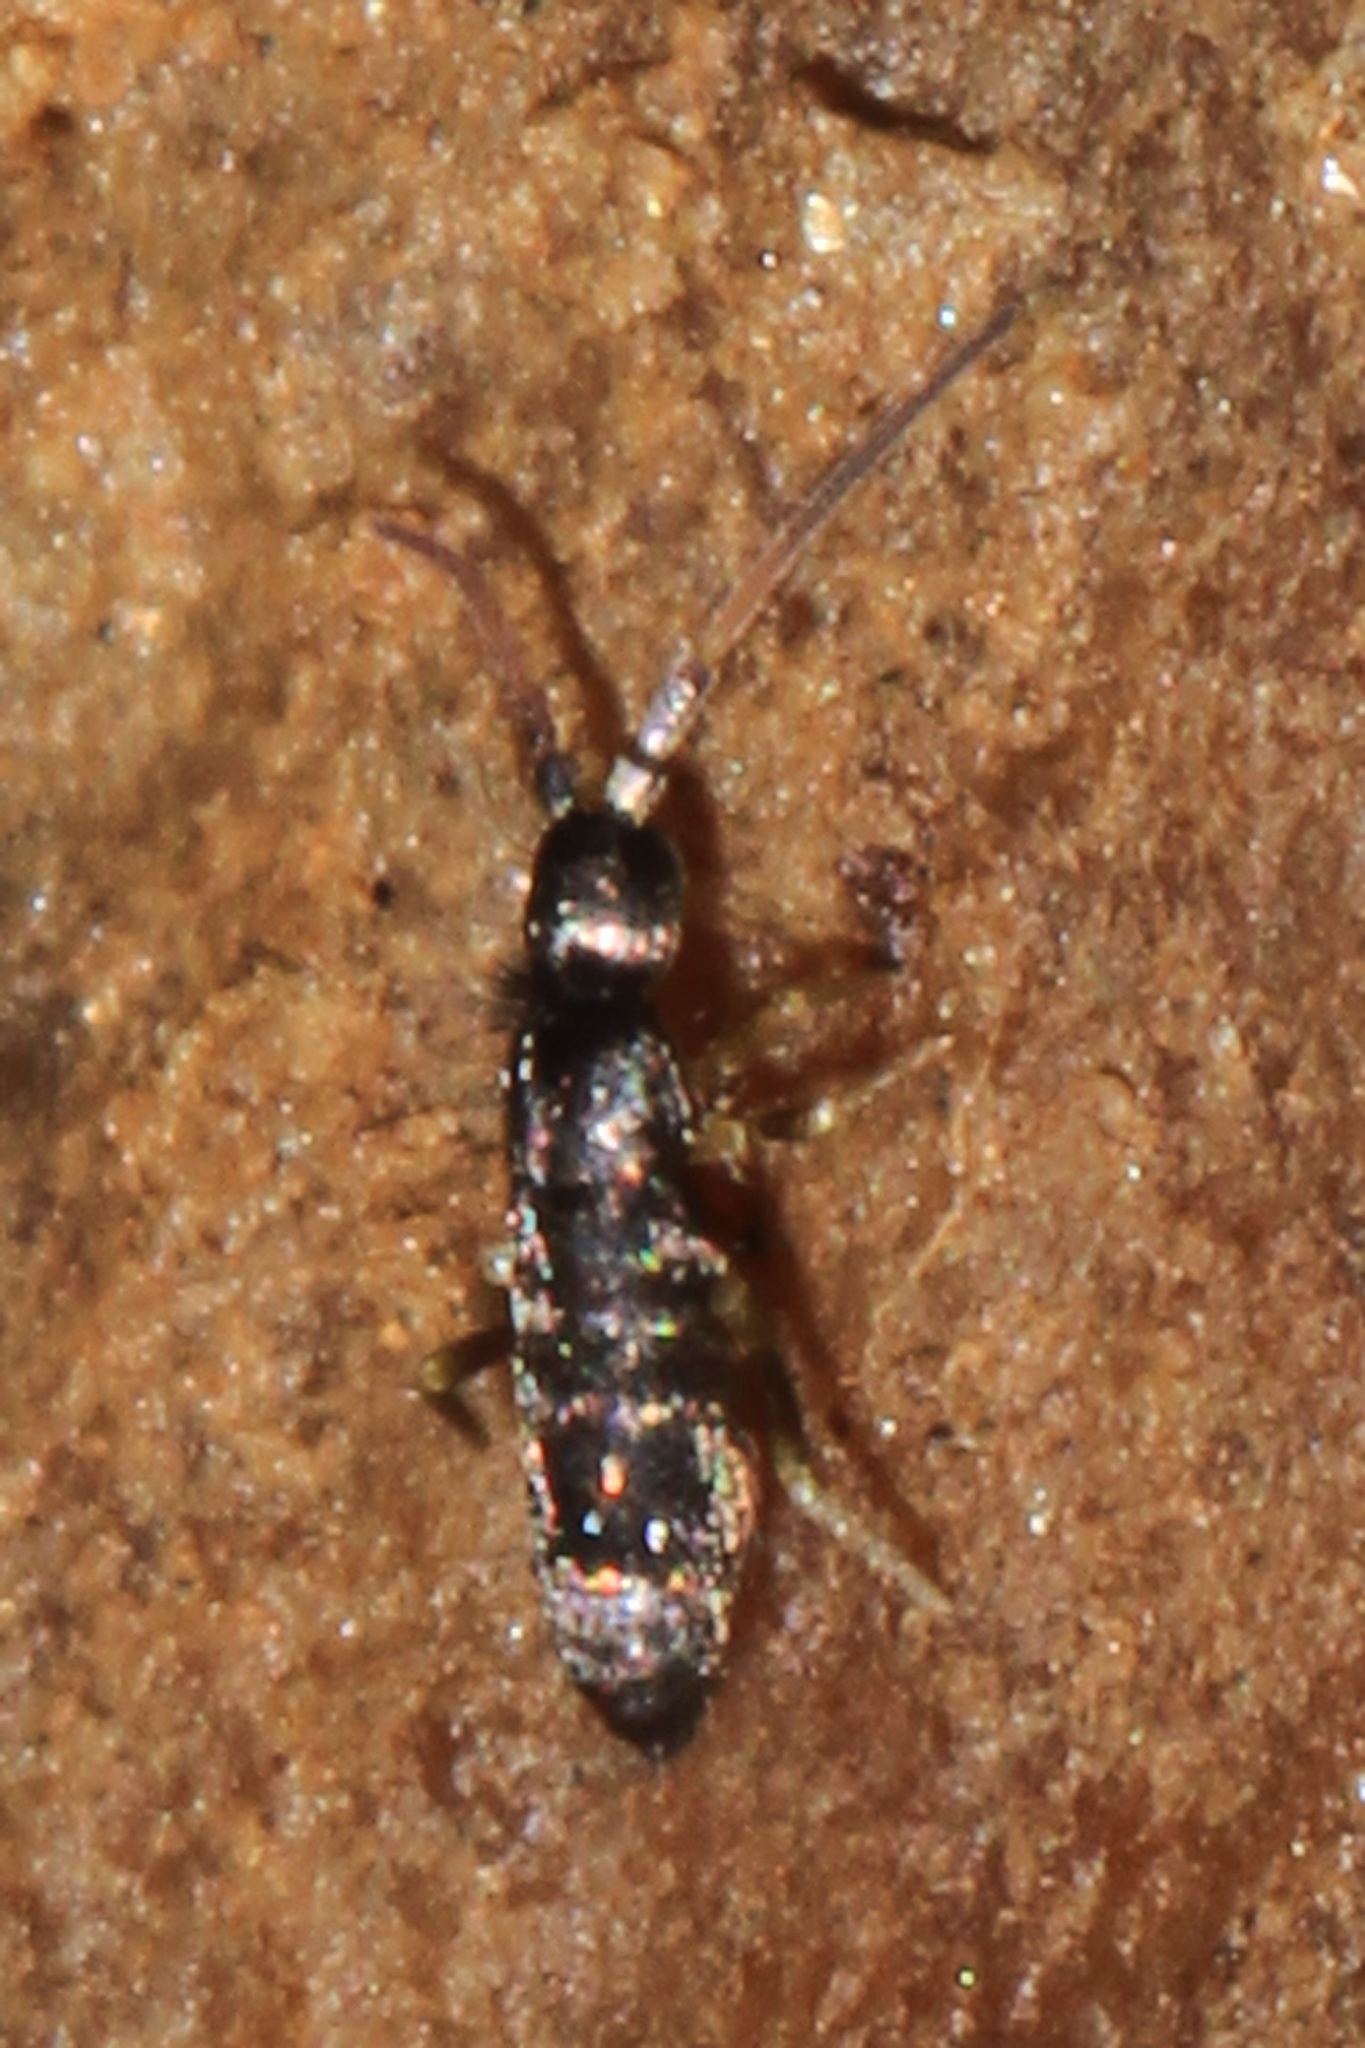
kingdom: Animalia
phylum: Arthropoda
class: Collembola
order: Entomobryomorpha
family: Tomoceridae
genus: Pogonognathellus
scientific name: Pogonognathellus nigritus
